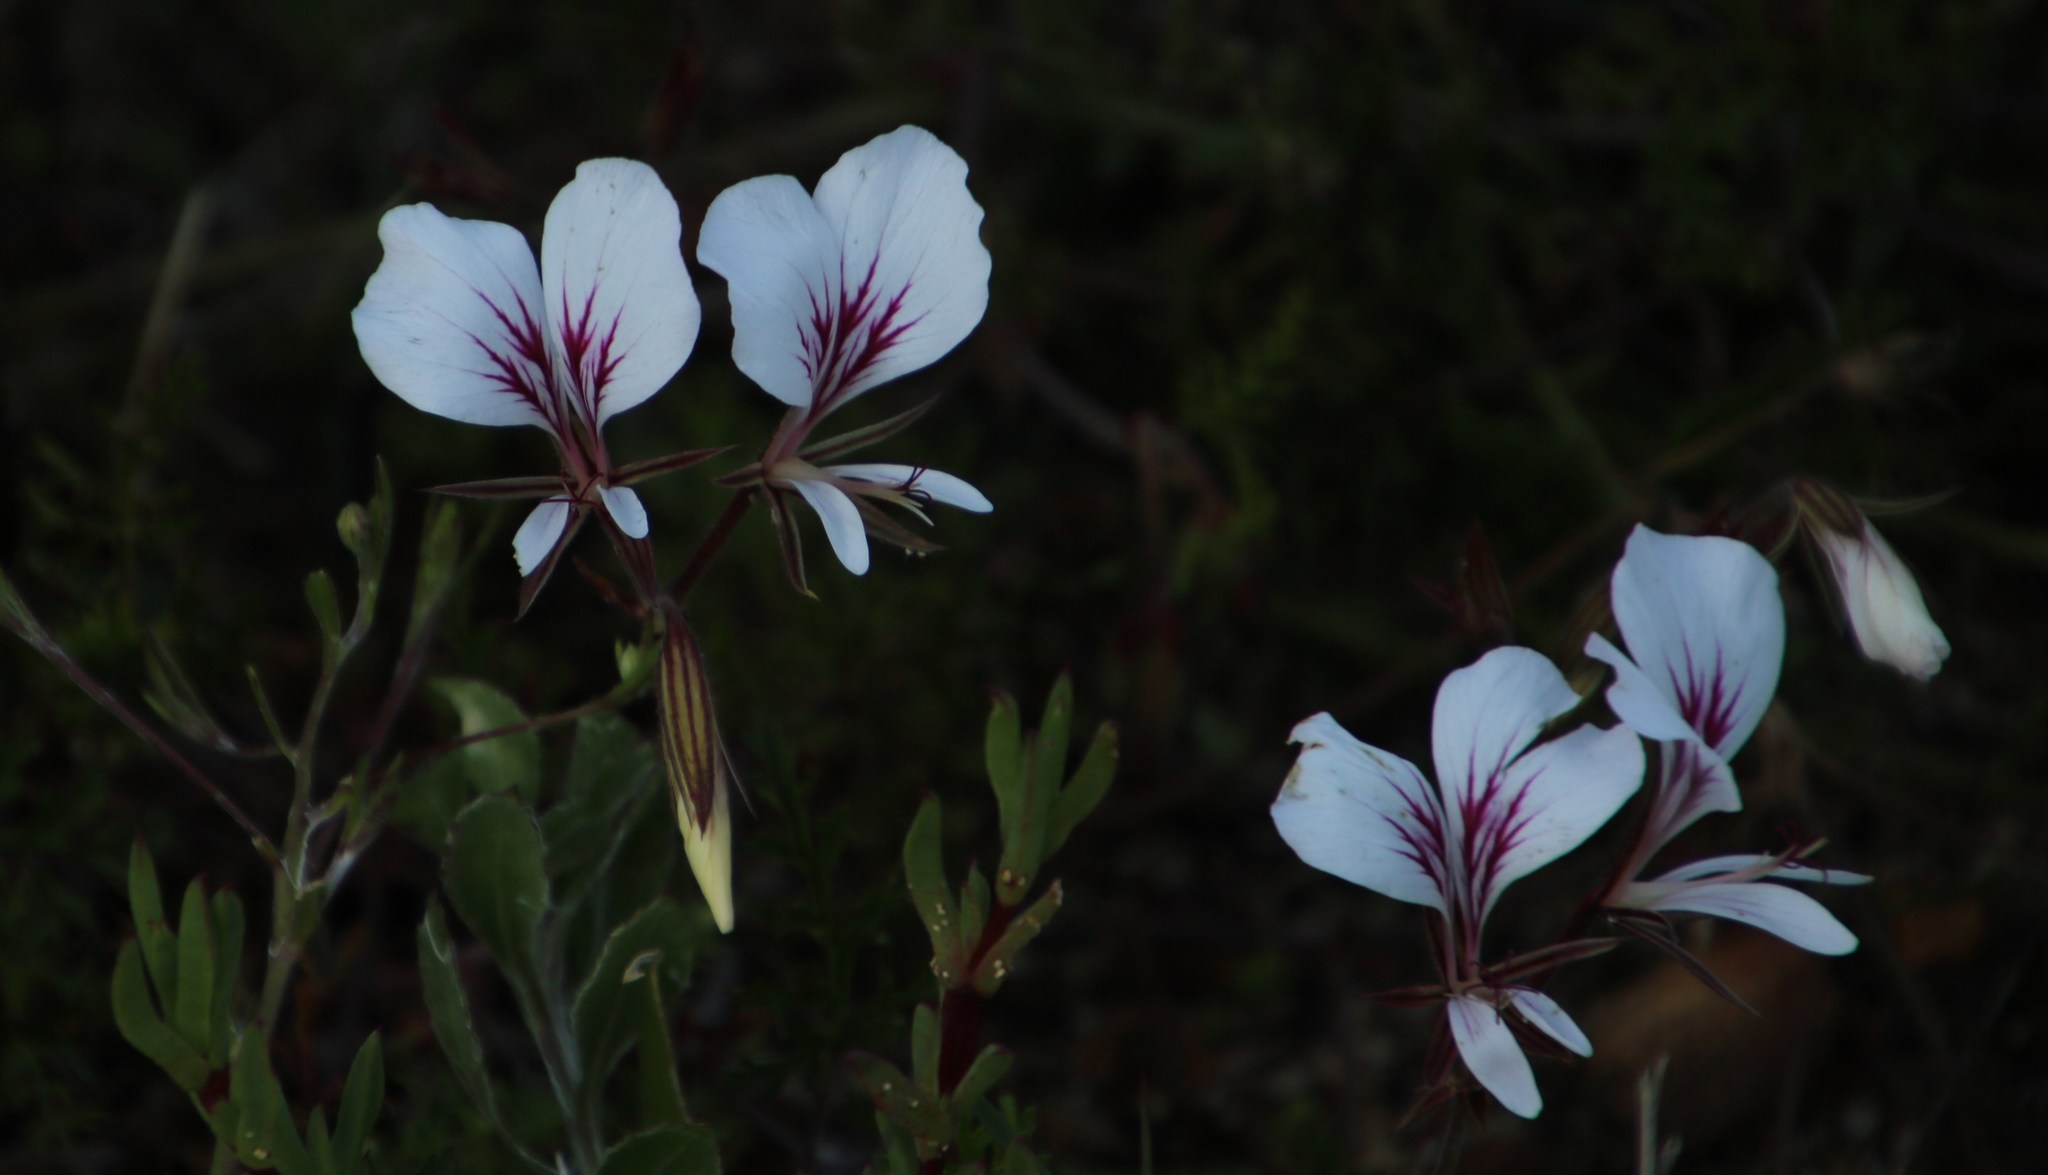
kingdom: Plantae
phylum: Tracheophyta
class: Magnoliopsida
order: Geraniales
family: Geraniaceae
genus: Pelargonium
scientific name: Pelargonium myrrhifolium
